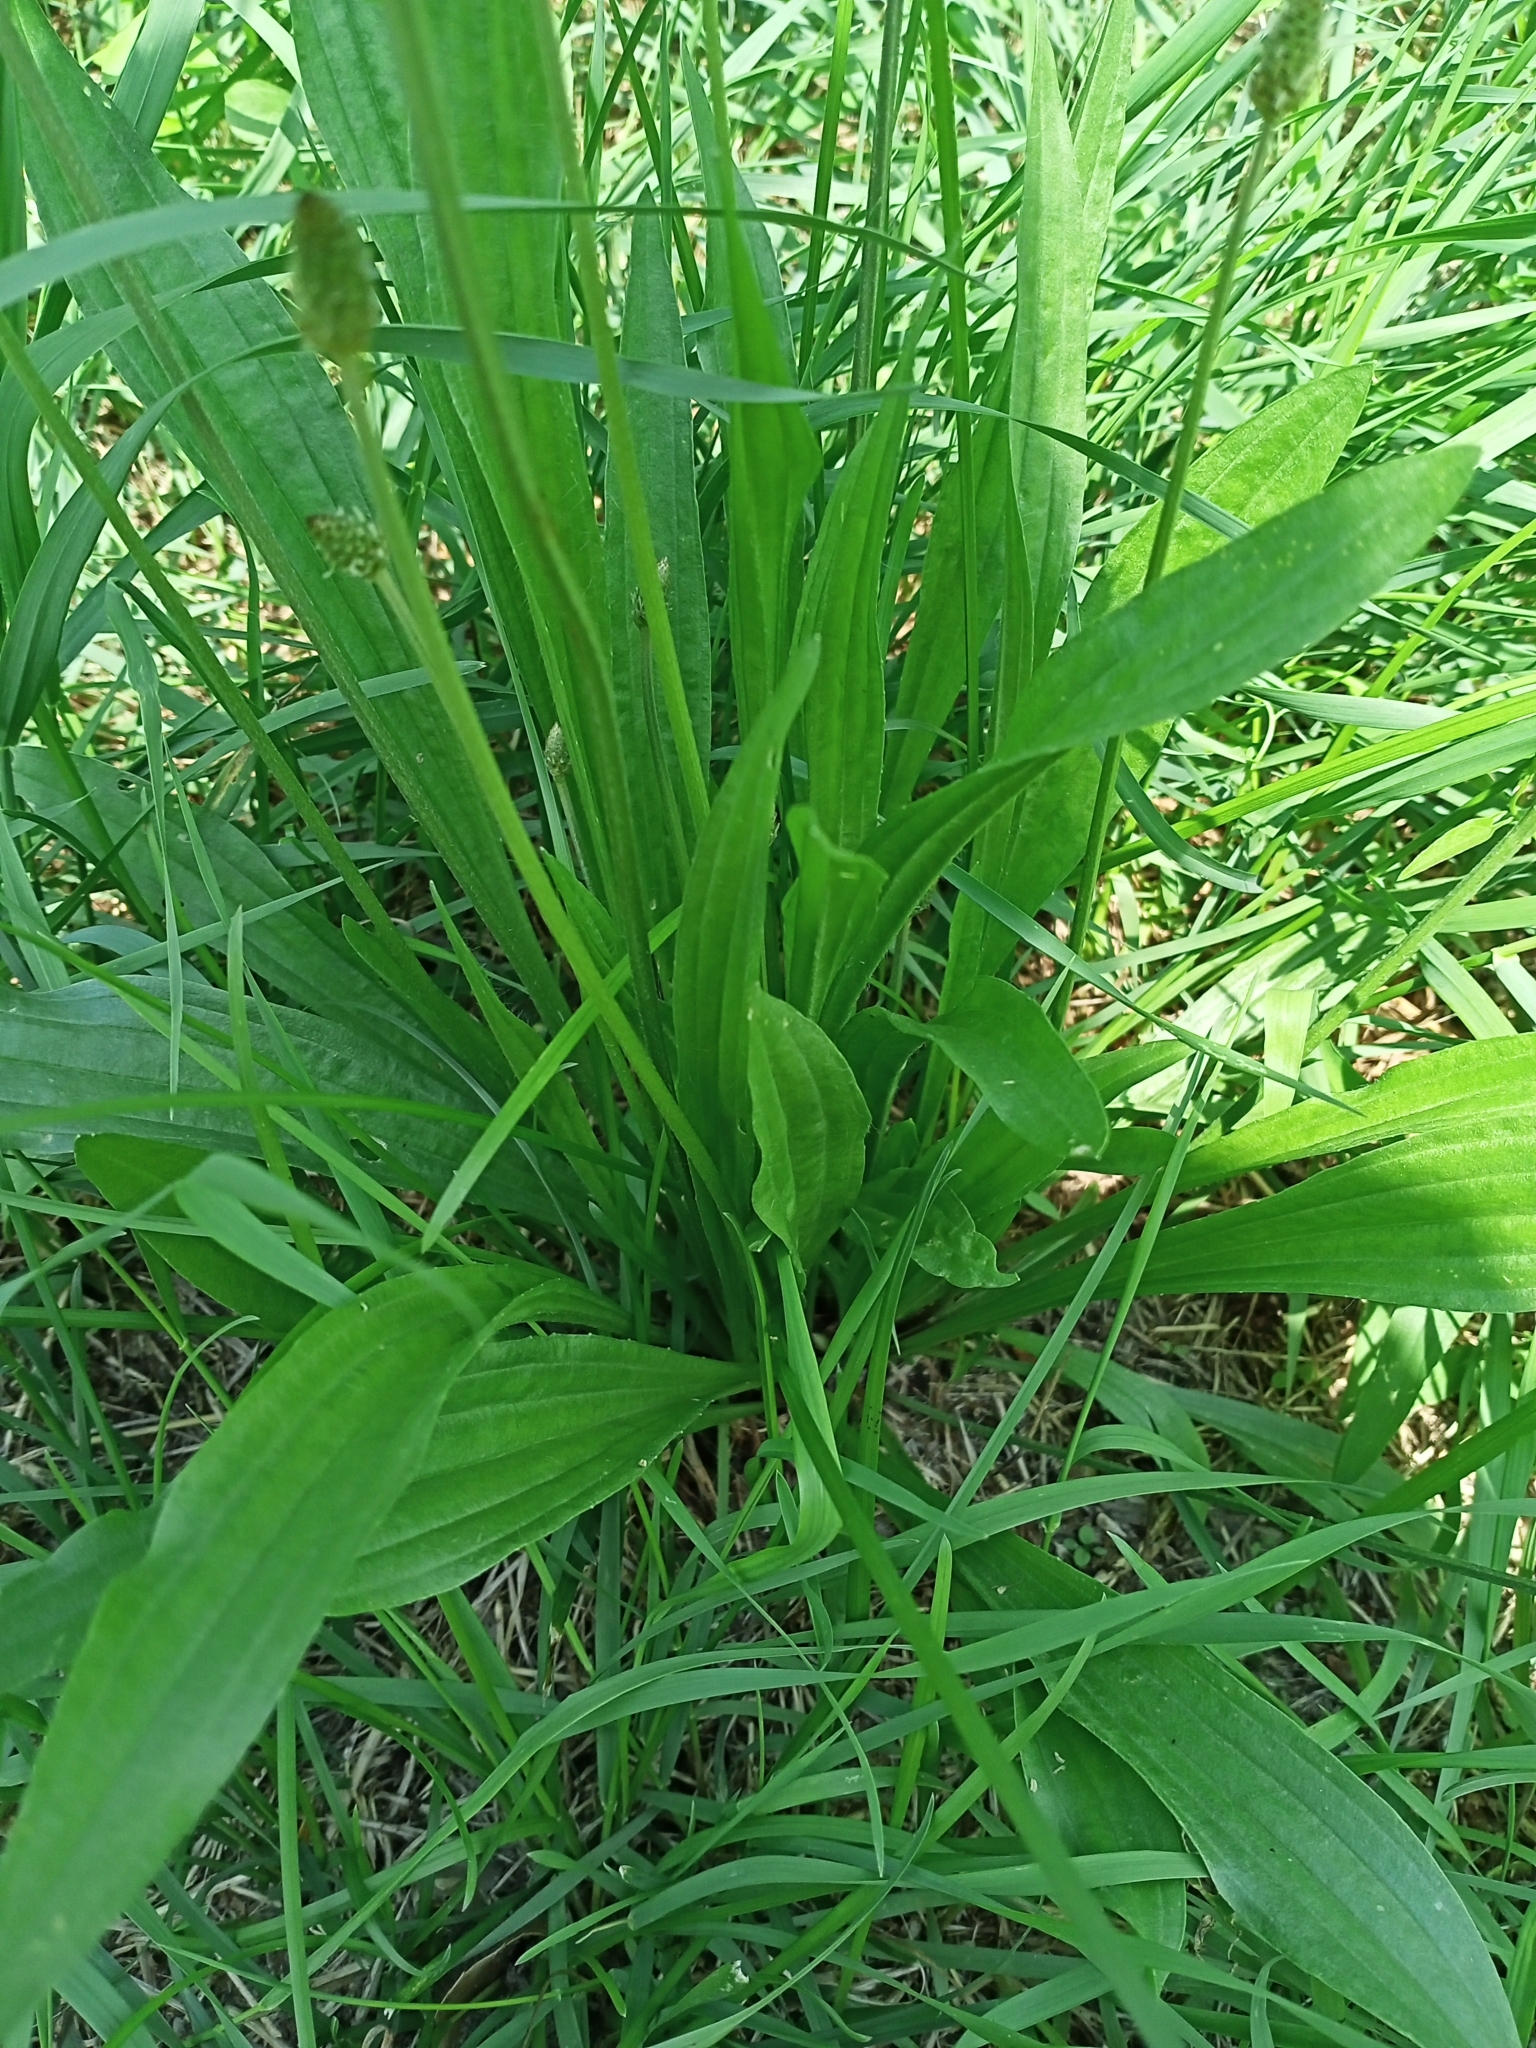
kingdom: Plantae
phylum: Tracheophyta
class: Magnoliopsida
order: Lamiales
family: Plantaginaceae
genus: Plantago
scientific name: Plantago lanceolata
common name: Ribwort plantain
